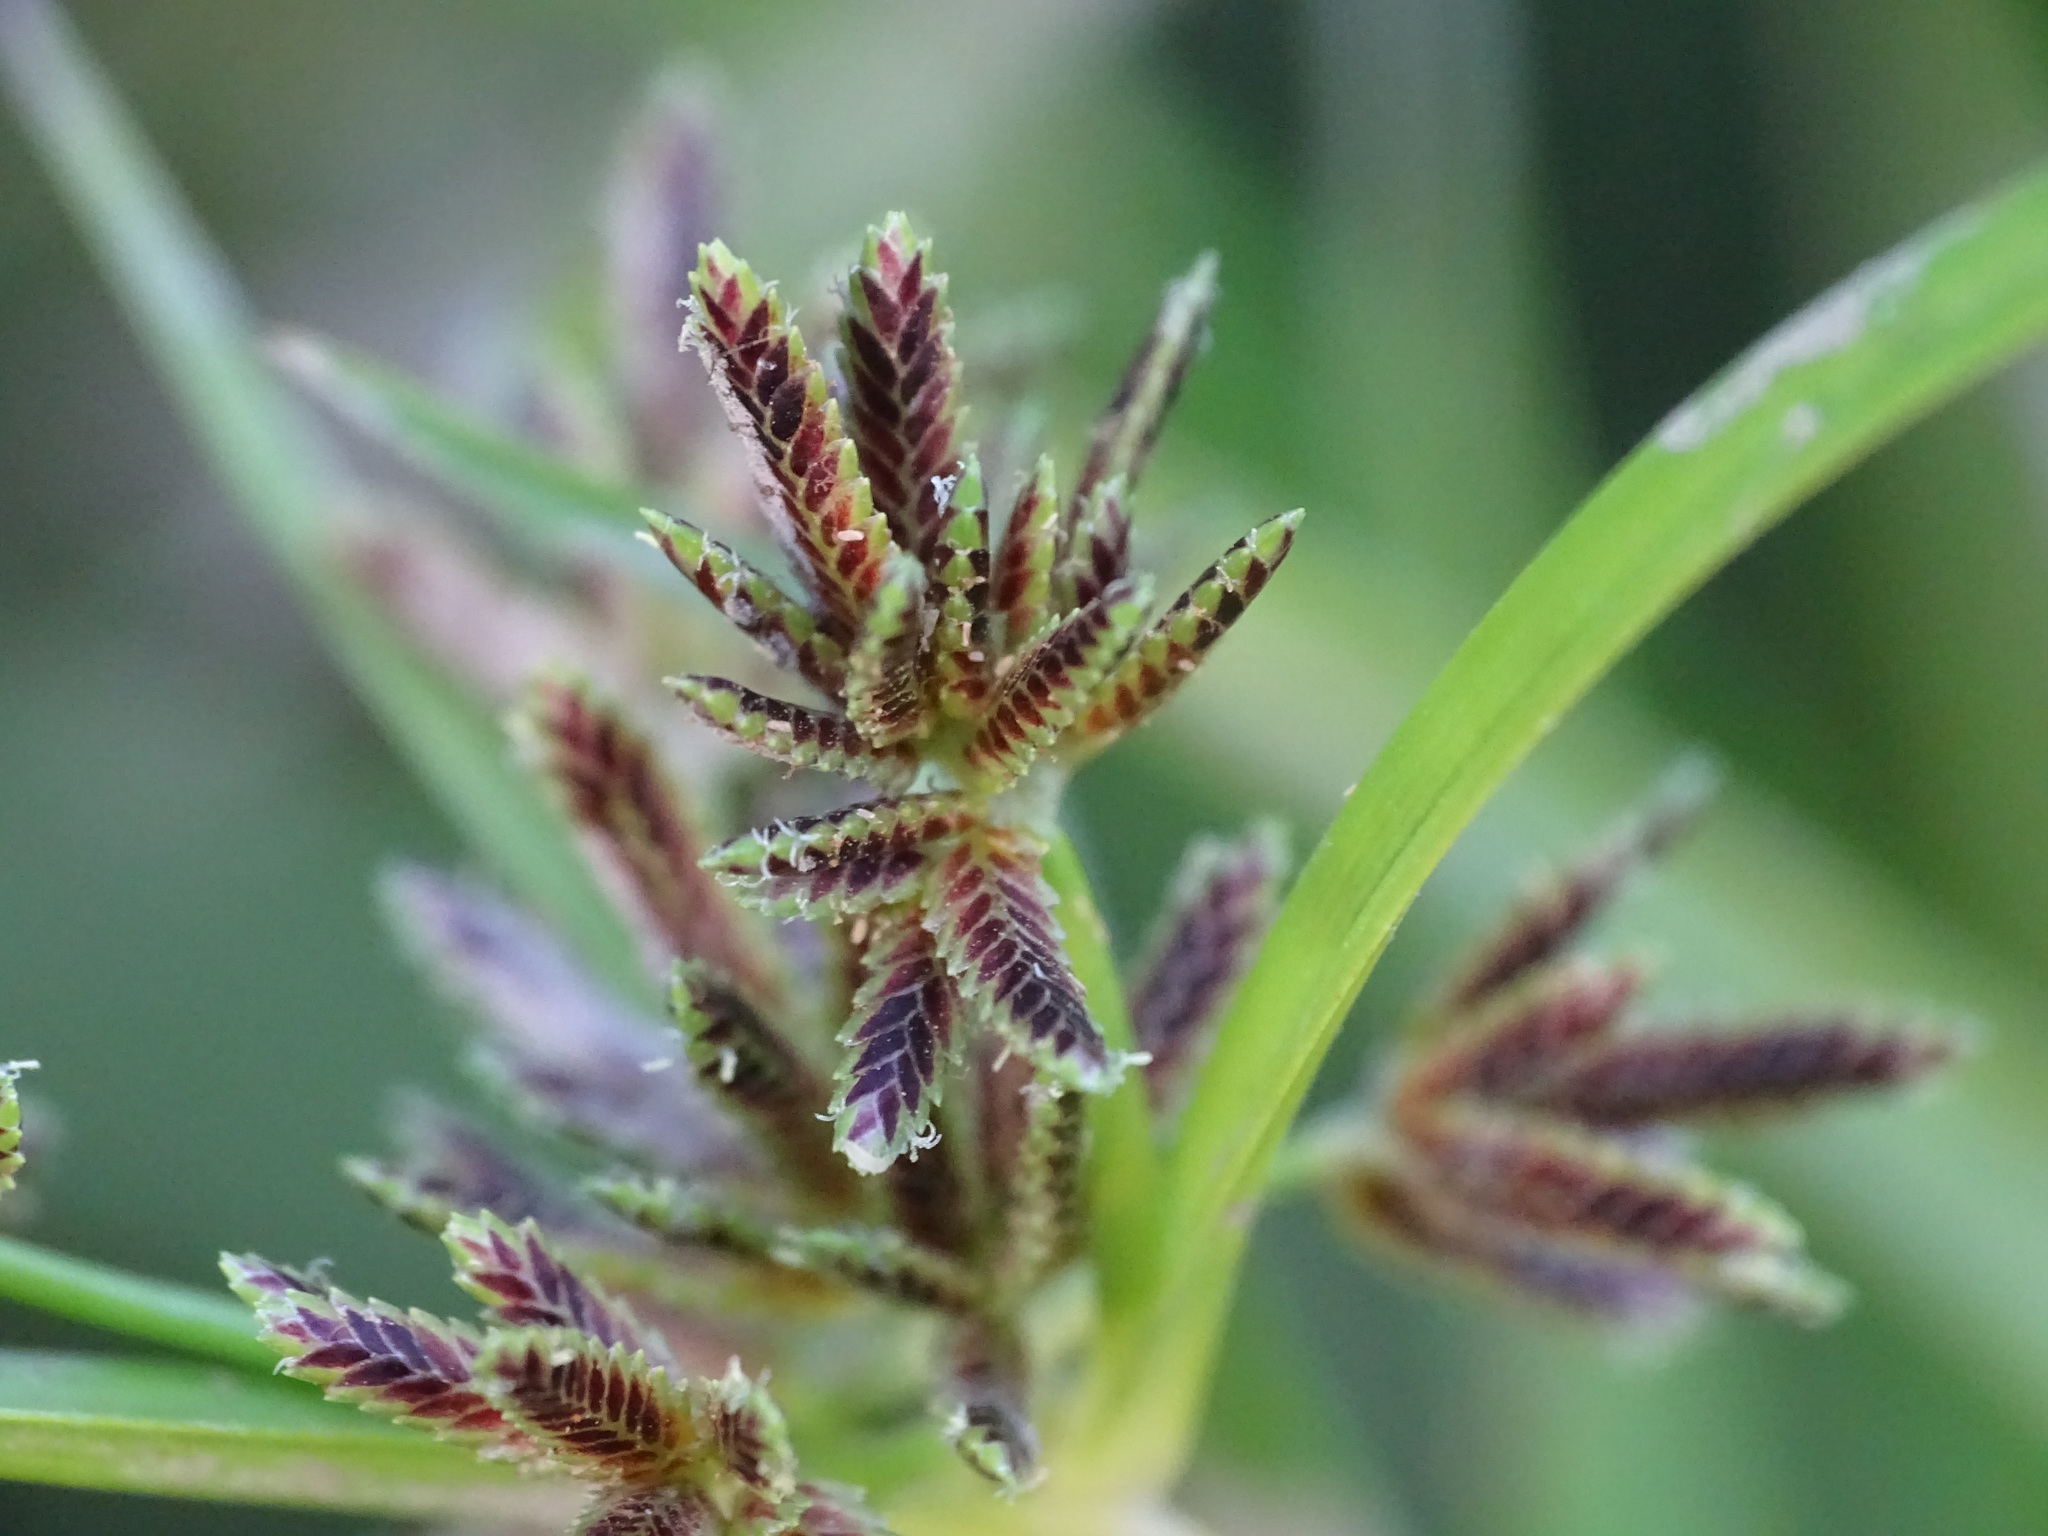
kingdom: Plantae
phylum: Tracheophyta
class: Liliopsida
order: Poales
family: Cyperaceae
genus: Cyperus
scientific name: Cyperus fuscus
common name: Brown galingale
